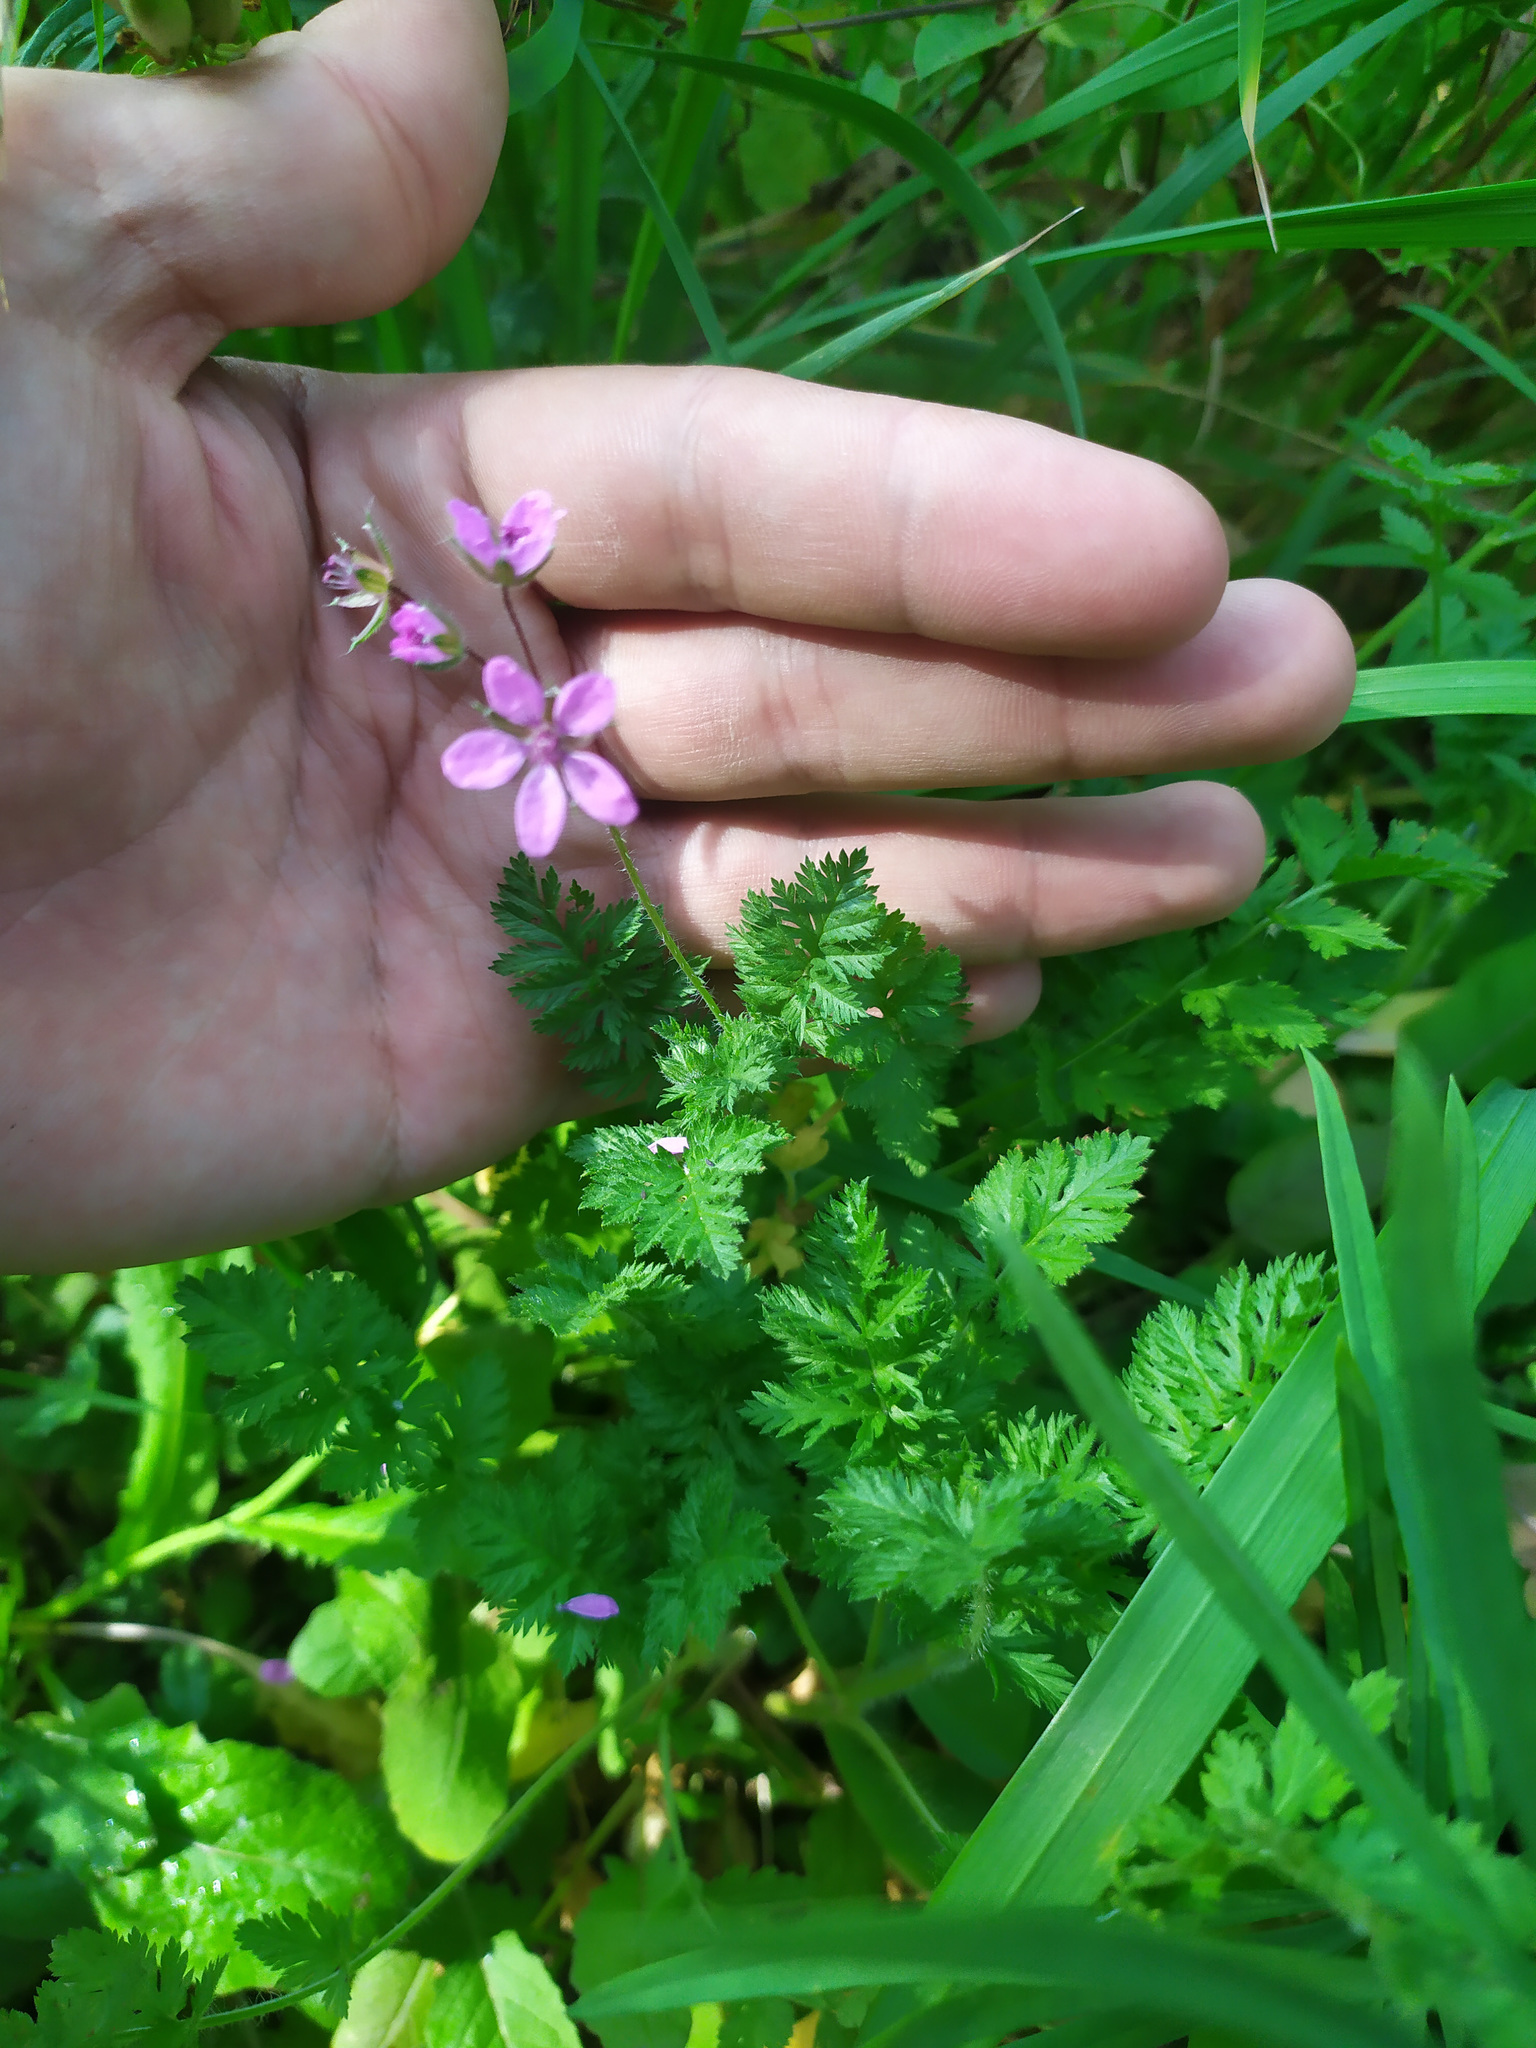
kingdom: Plantae
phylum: Tracheophyta
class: Magnoliopsida
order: Geraniales
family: Geraniaceae
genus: Erodium
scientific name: Erodium cicutarium
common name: Common stork's-bill
